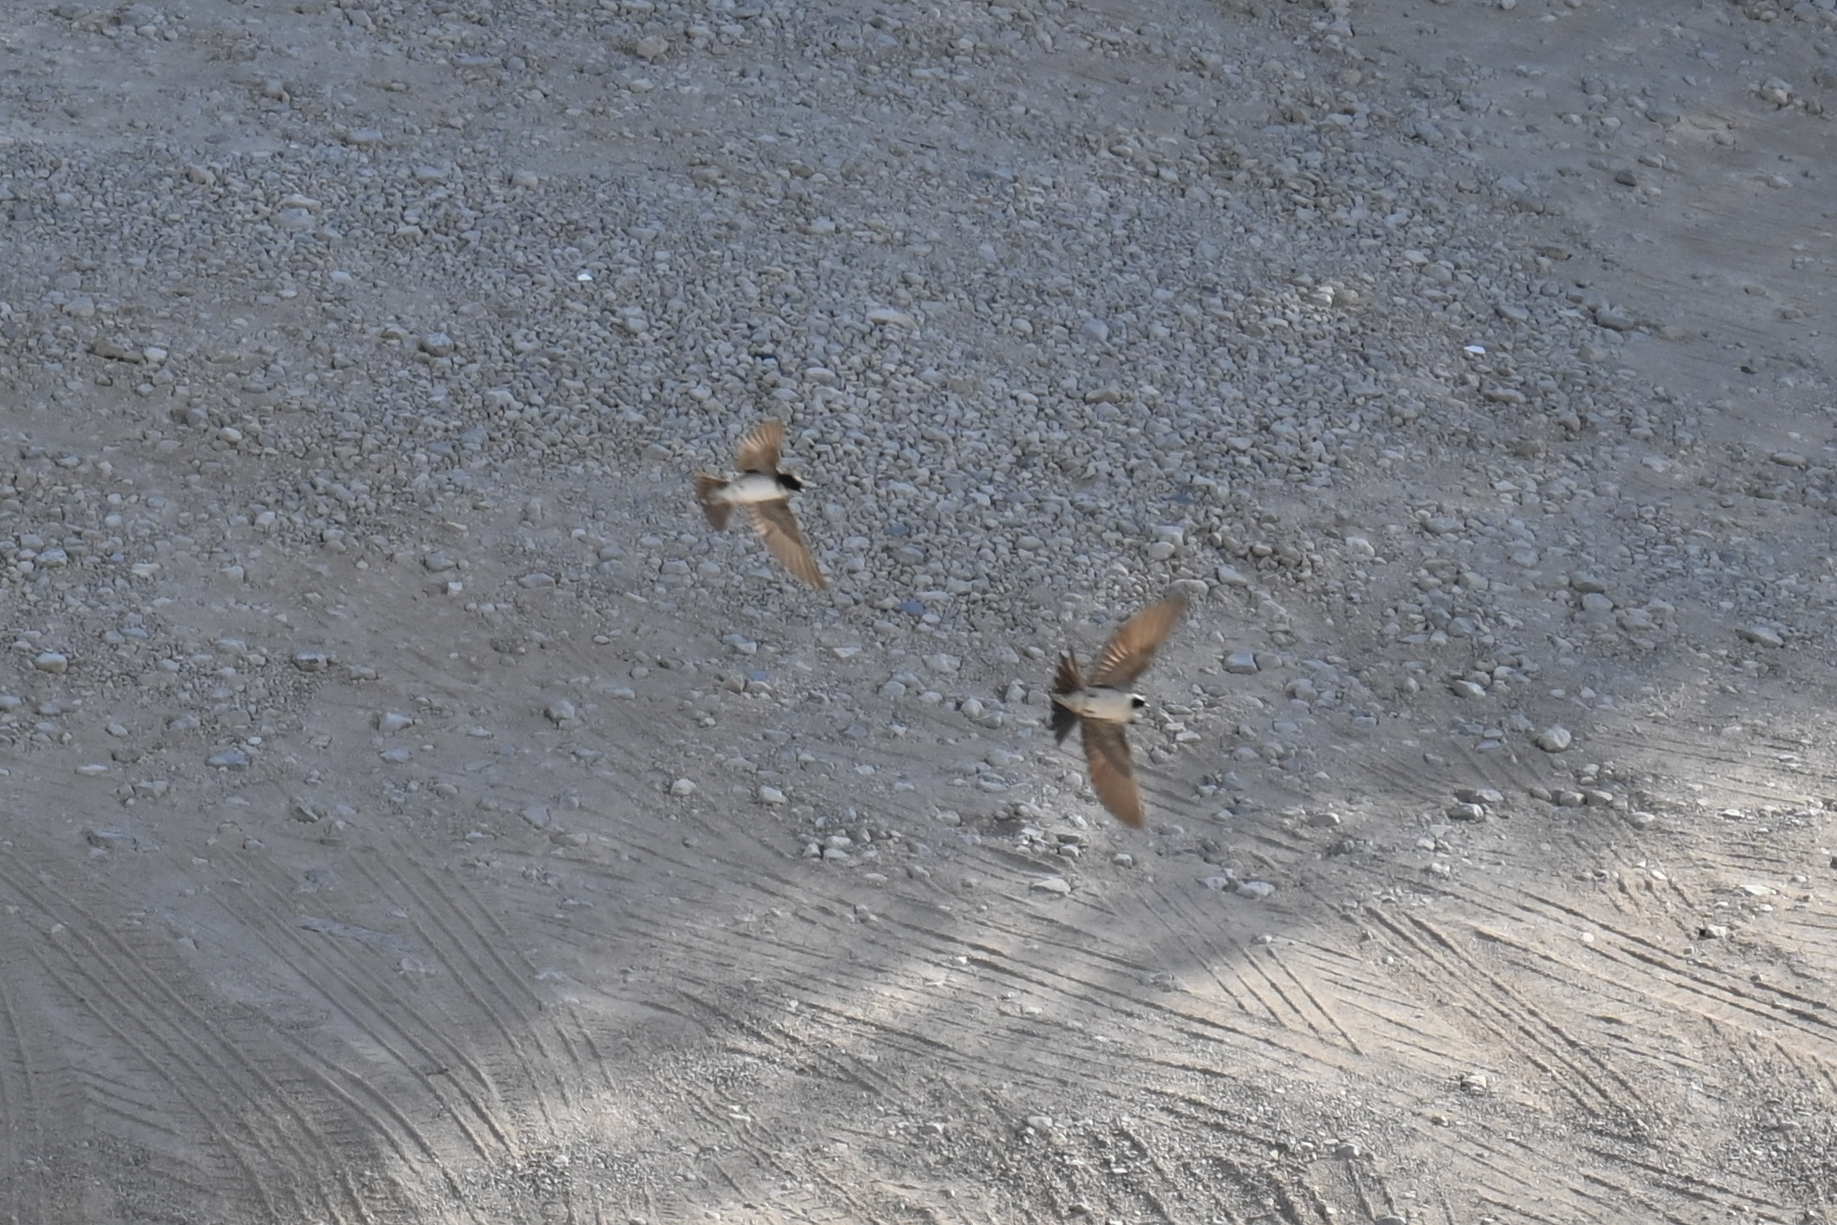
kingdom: Animalia
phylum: Chordata
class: Aves
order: Passeriformes
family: Hirundinidae
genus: Delichon
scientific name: Delichon urbicum
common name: Common house martin
